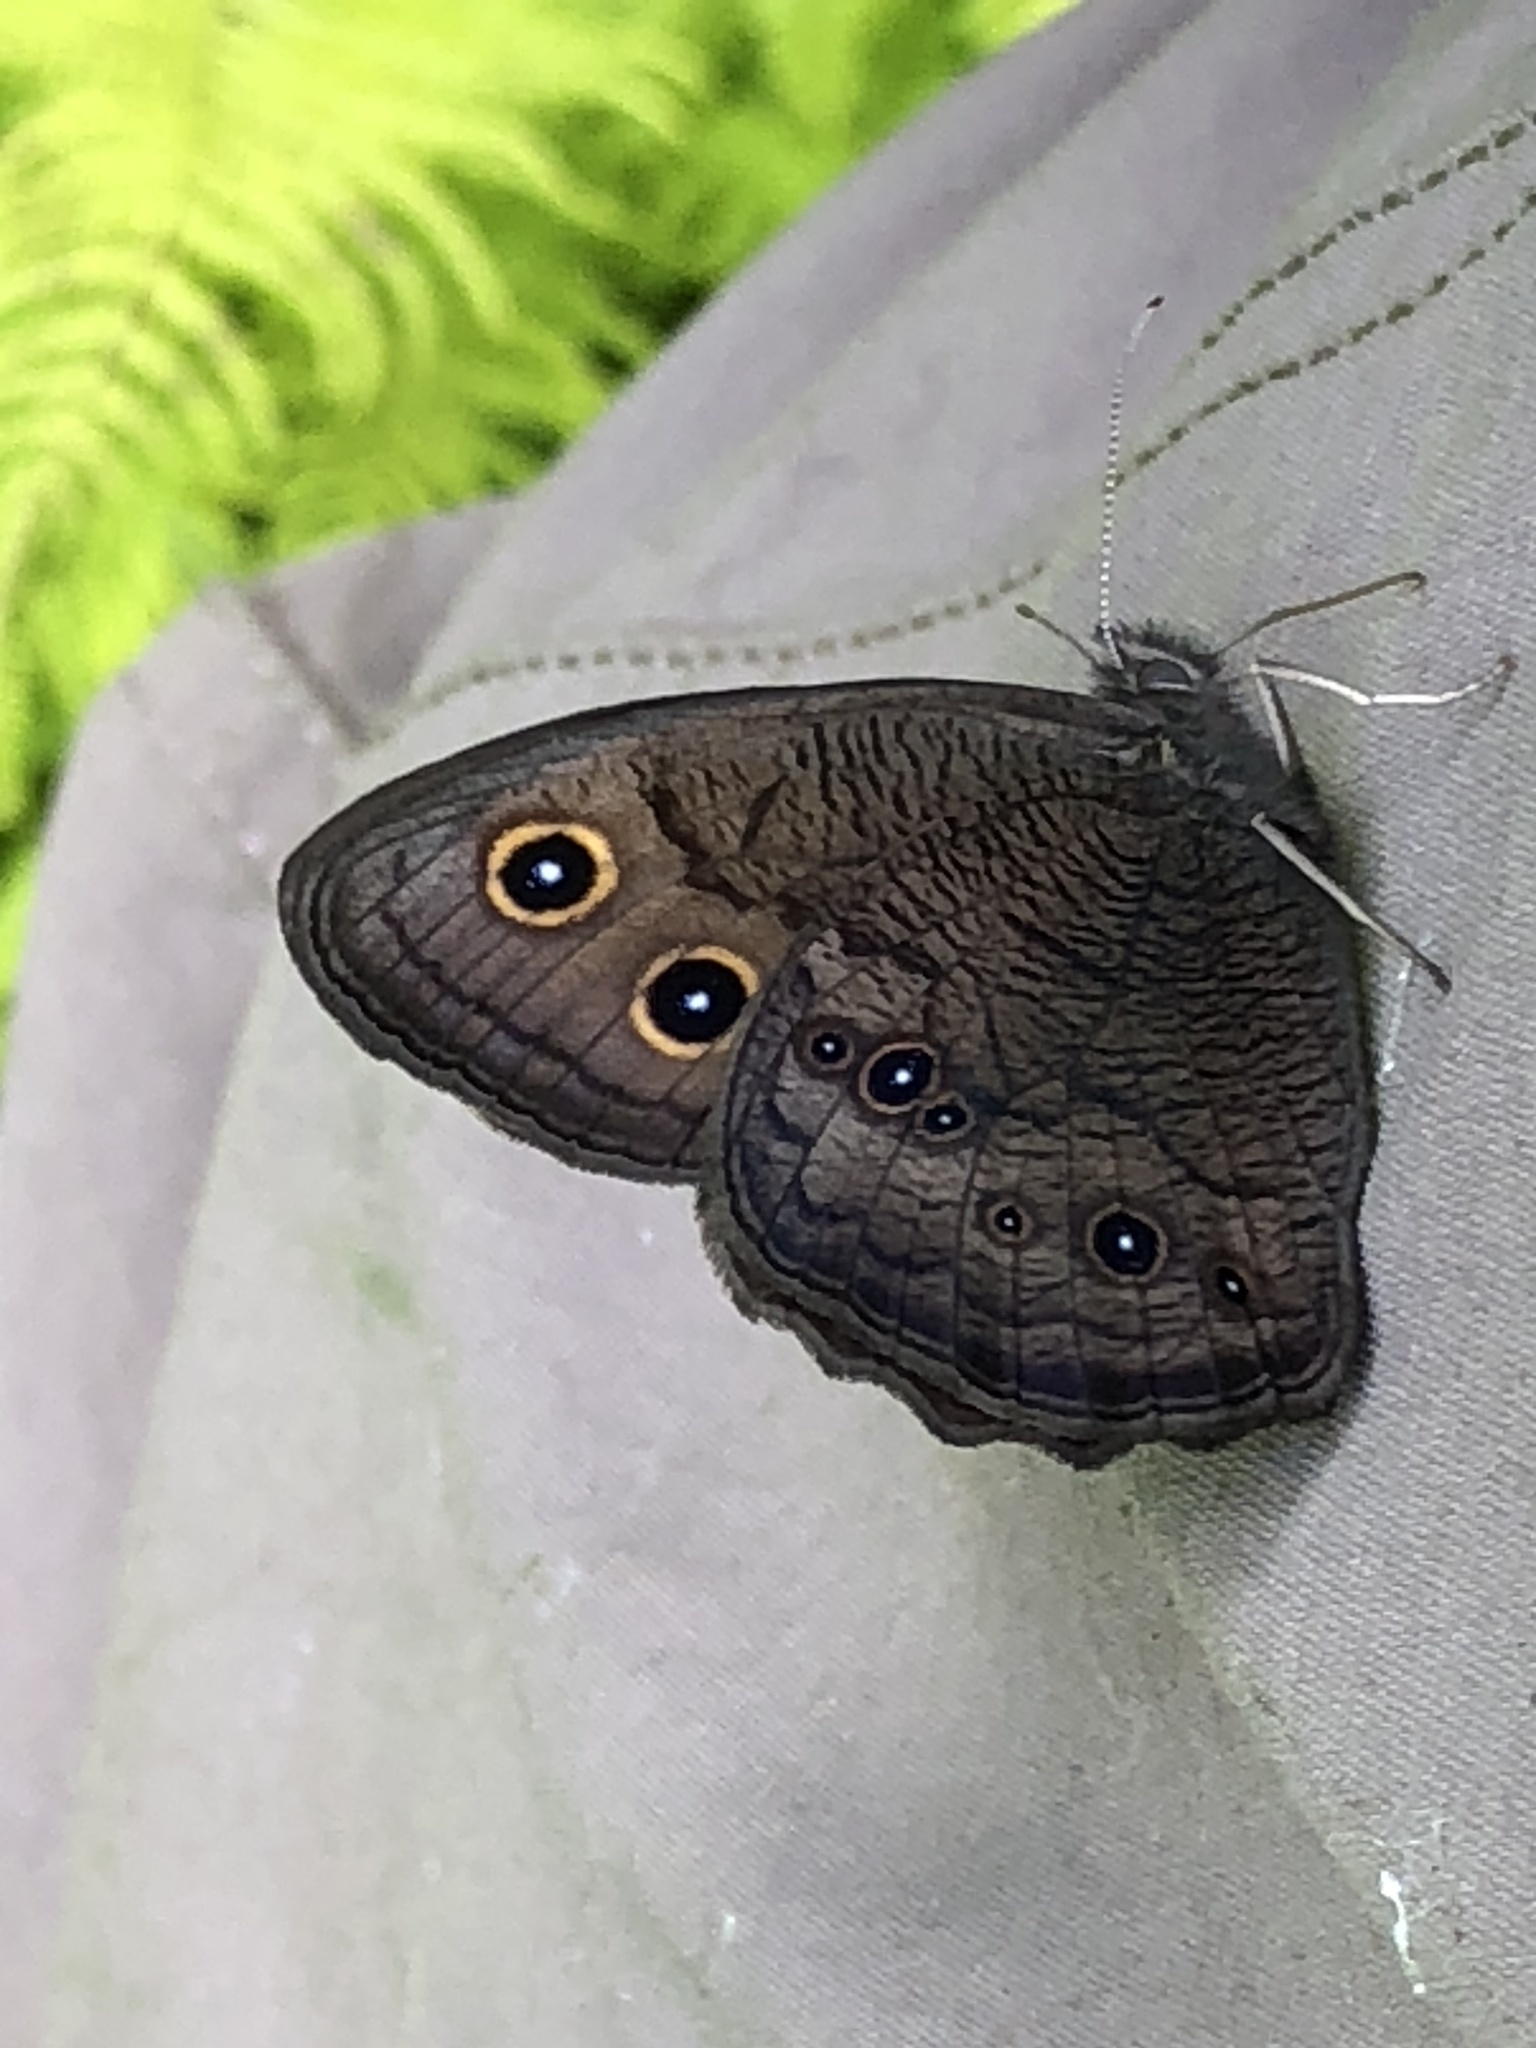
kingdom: Animalia
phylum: Arthropoda
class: Insecta
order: Lepidoptera
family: Nymphalidae
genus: Cercyonis
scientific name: Cercyonis pegala
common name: Common wood-nymph
